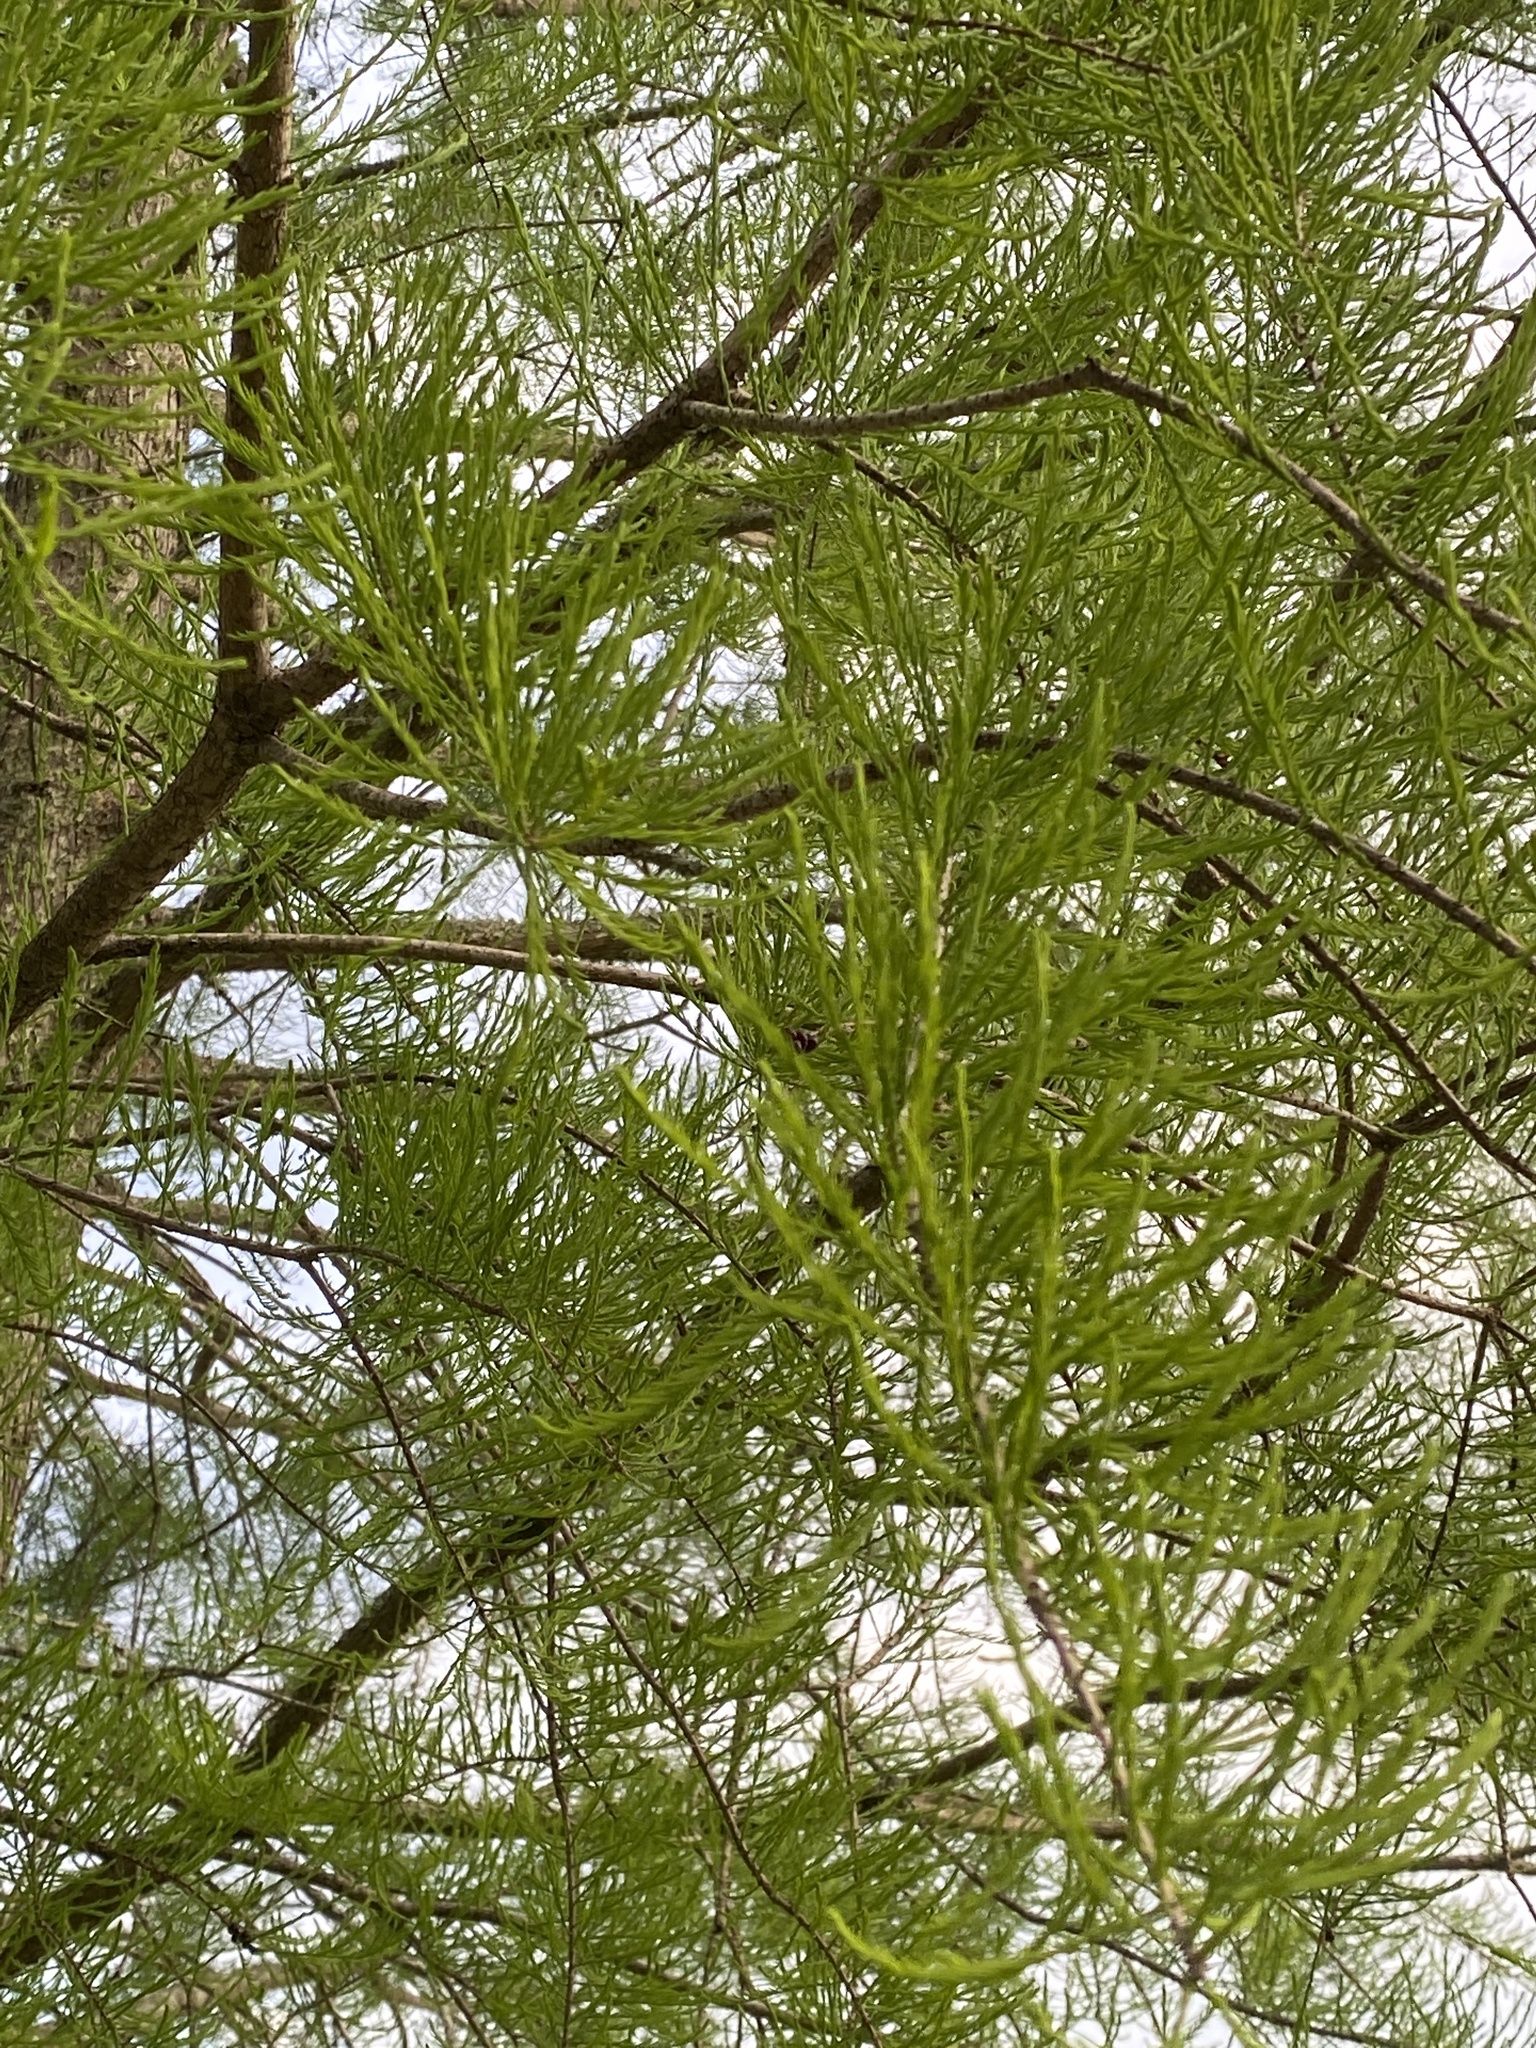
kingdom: Plantae
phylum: Tracheophyta
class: Pinopsida
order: Pinales
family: Cupressaceae
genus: Taxodium
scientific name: Taxodium distichum
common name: Bald cypress
